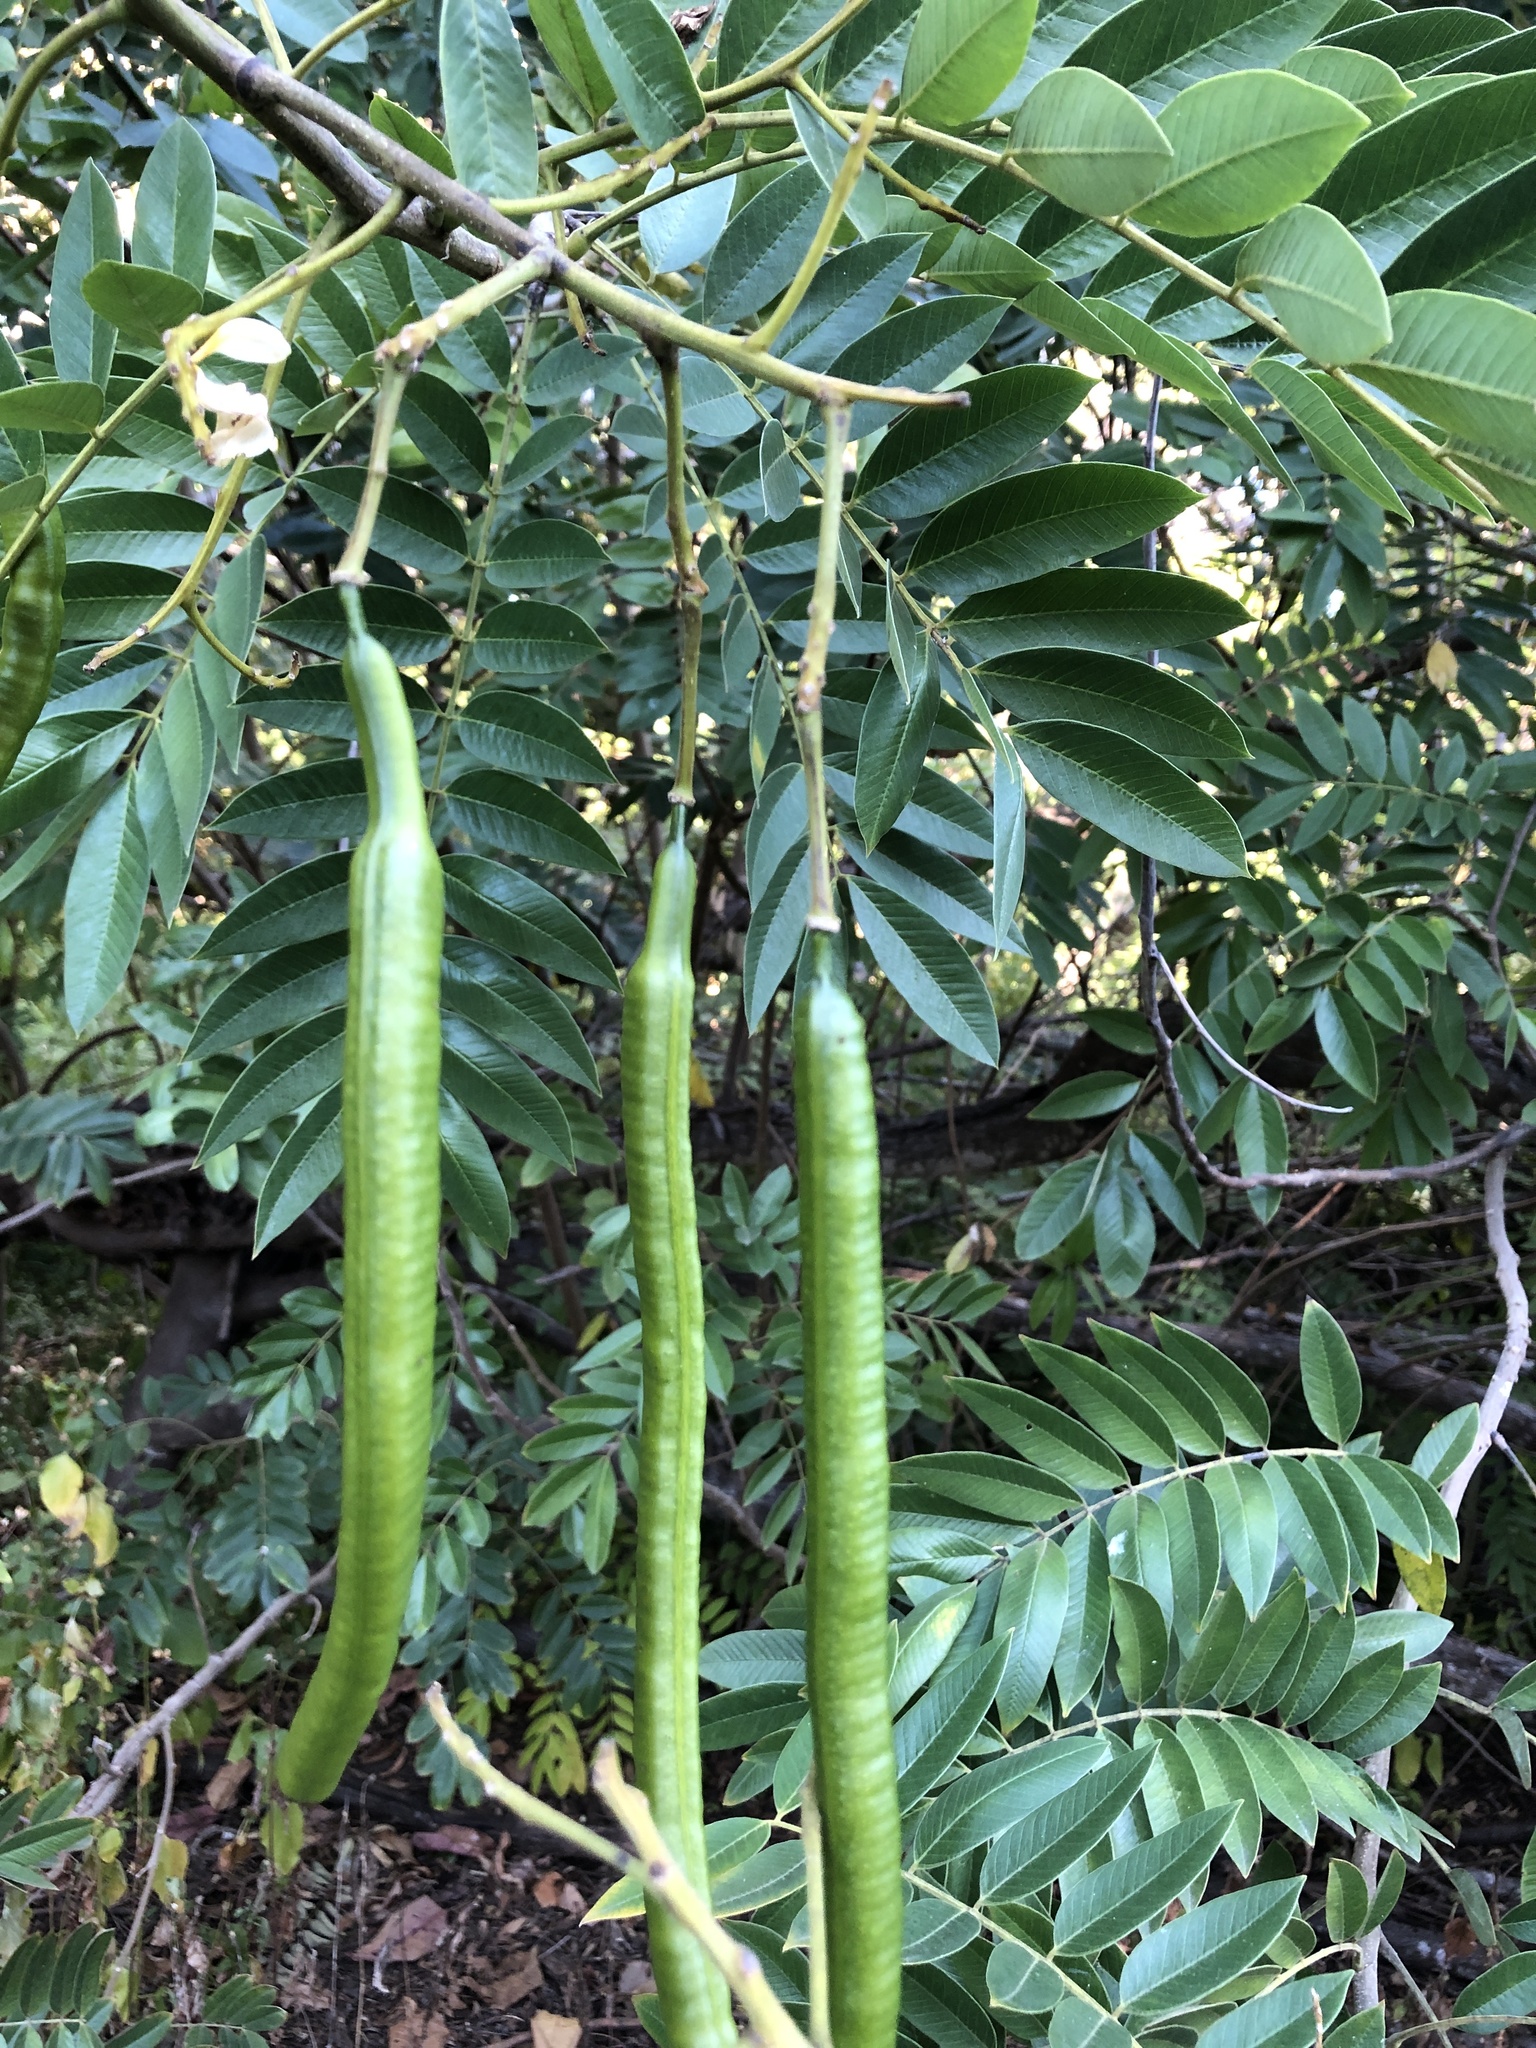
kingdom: Plantae
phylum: Tracheophyta
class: Magnoliopsida
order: Fabales
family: Fabaceae
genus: Senna
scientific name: Senna spectabilis
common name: Casia amarilla
